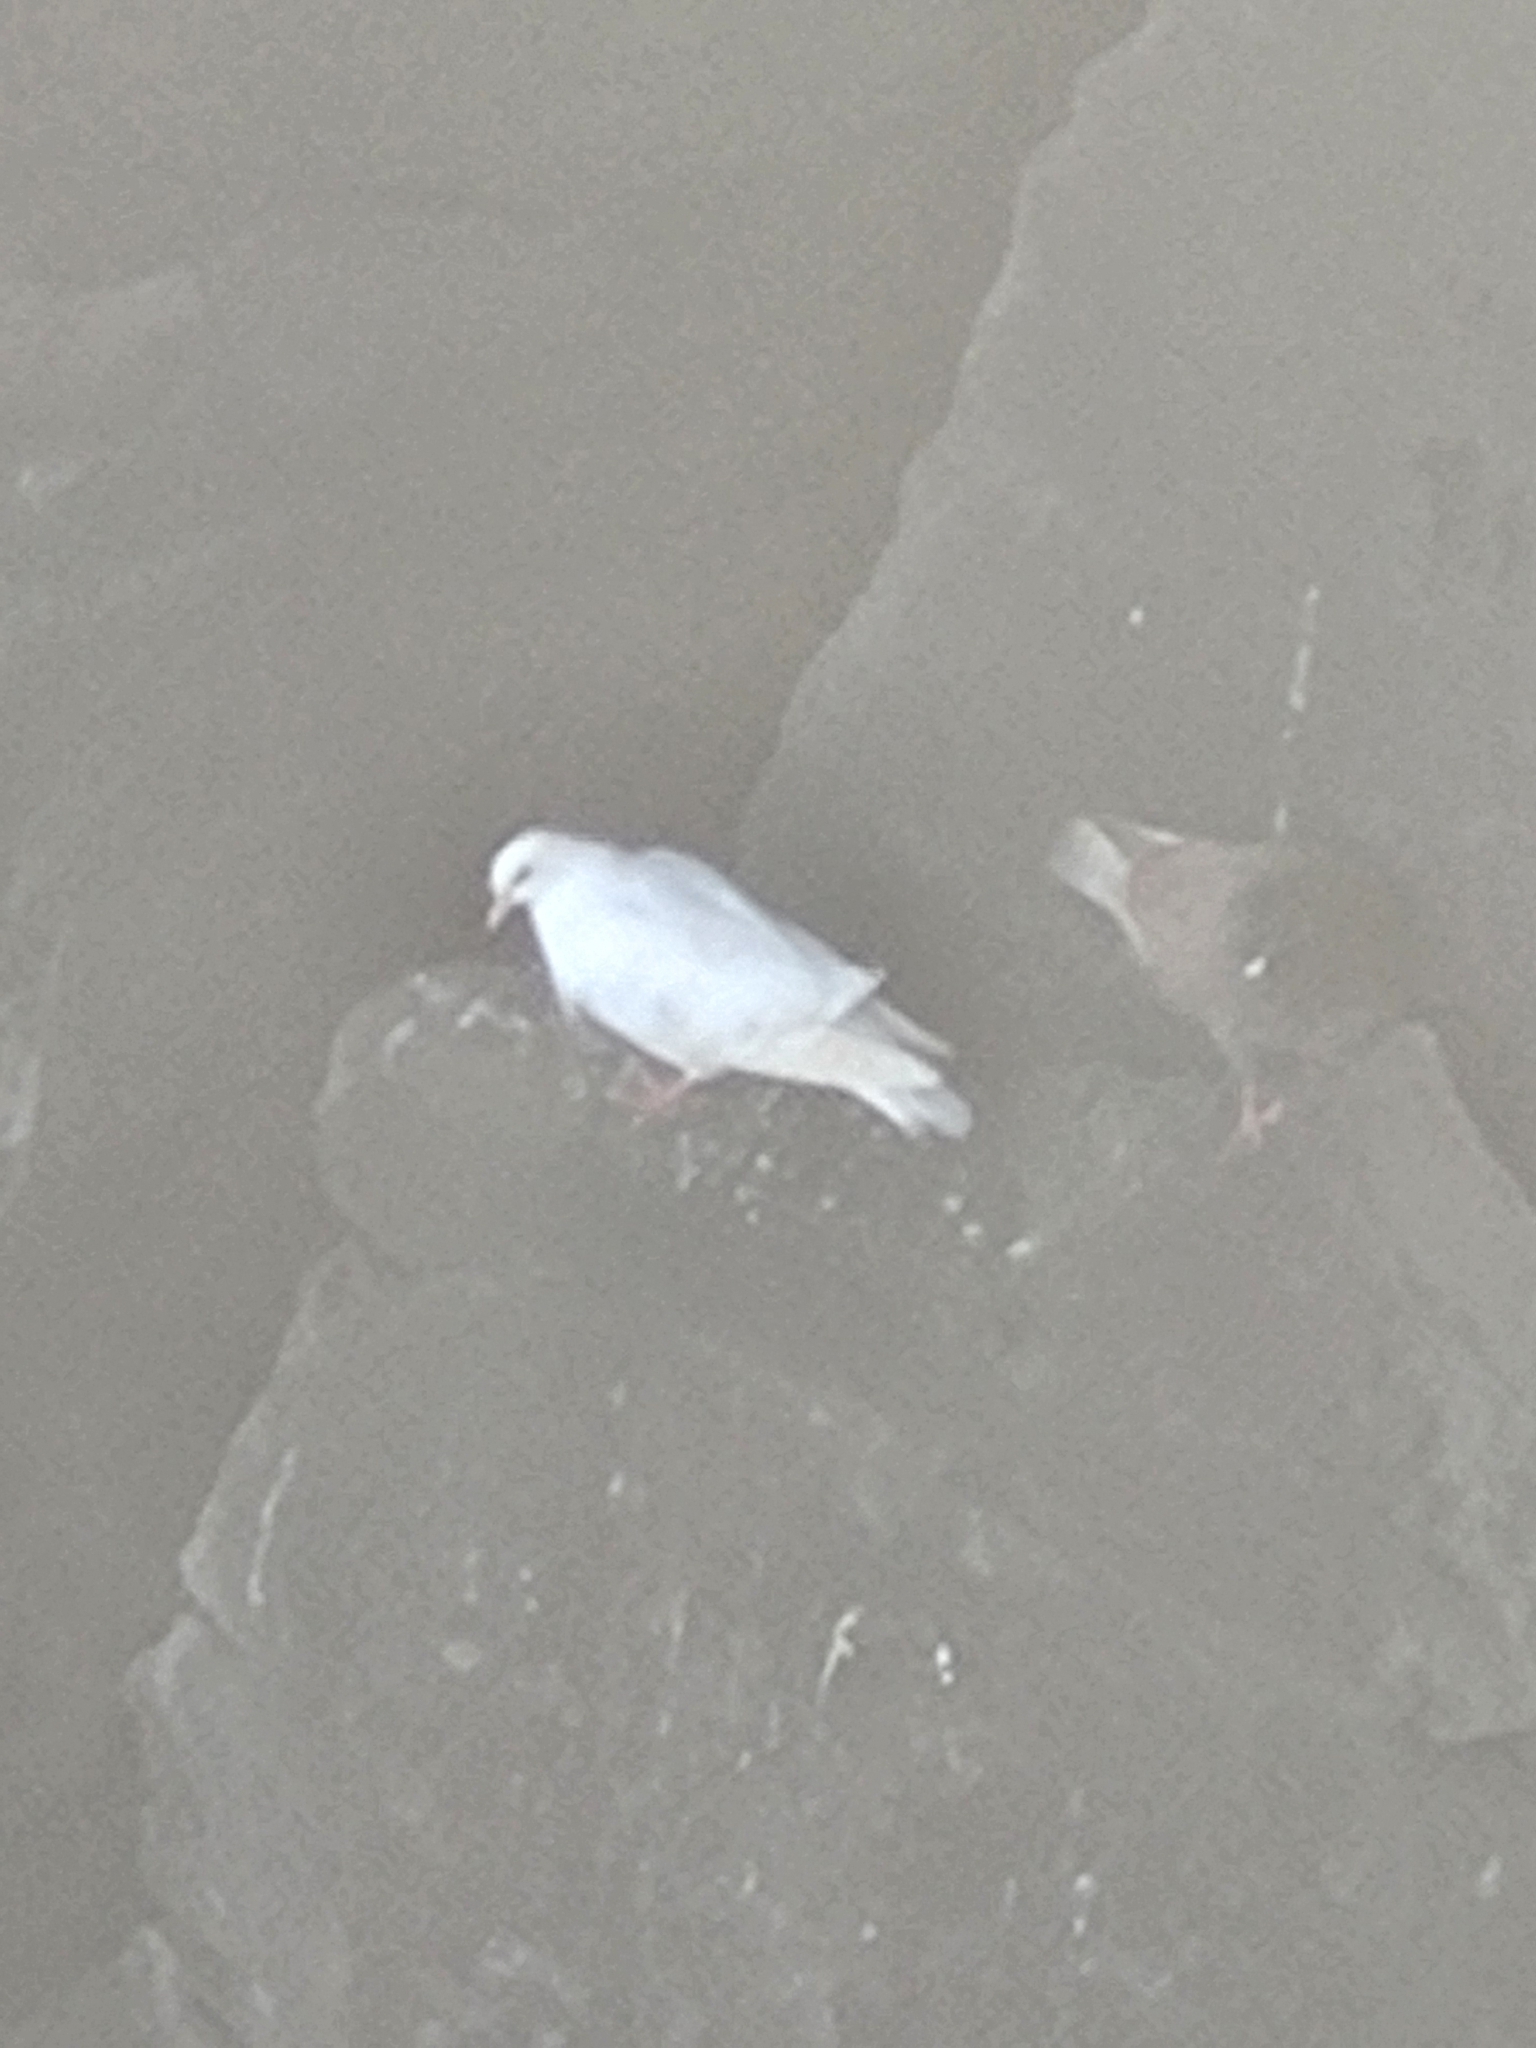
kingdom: Animalia
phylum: Chordata
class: Aves
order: Columbiformes
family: Columbidae
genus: Columba
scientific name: Columba livia
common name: Rock pigeon
